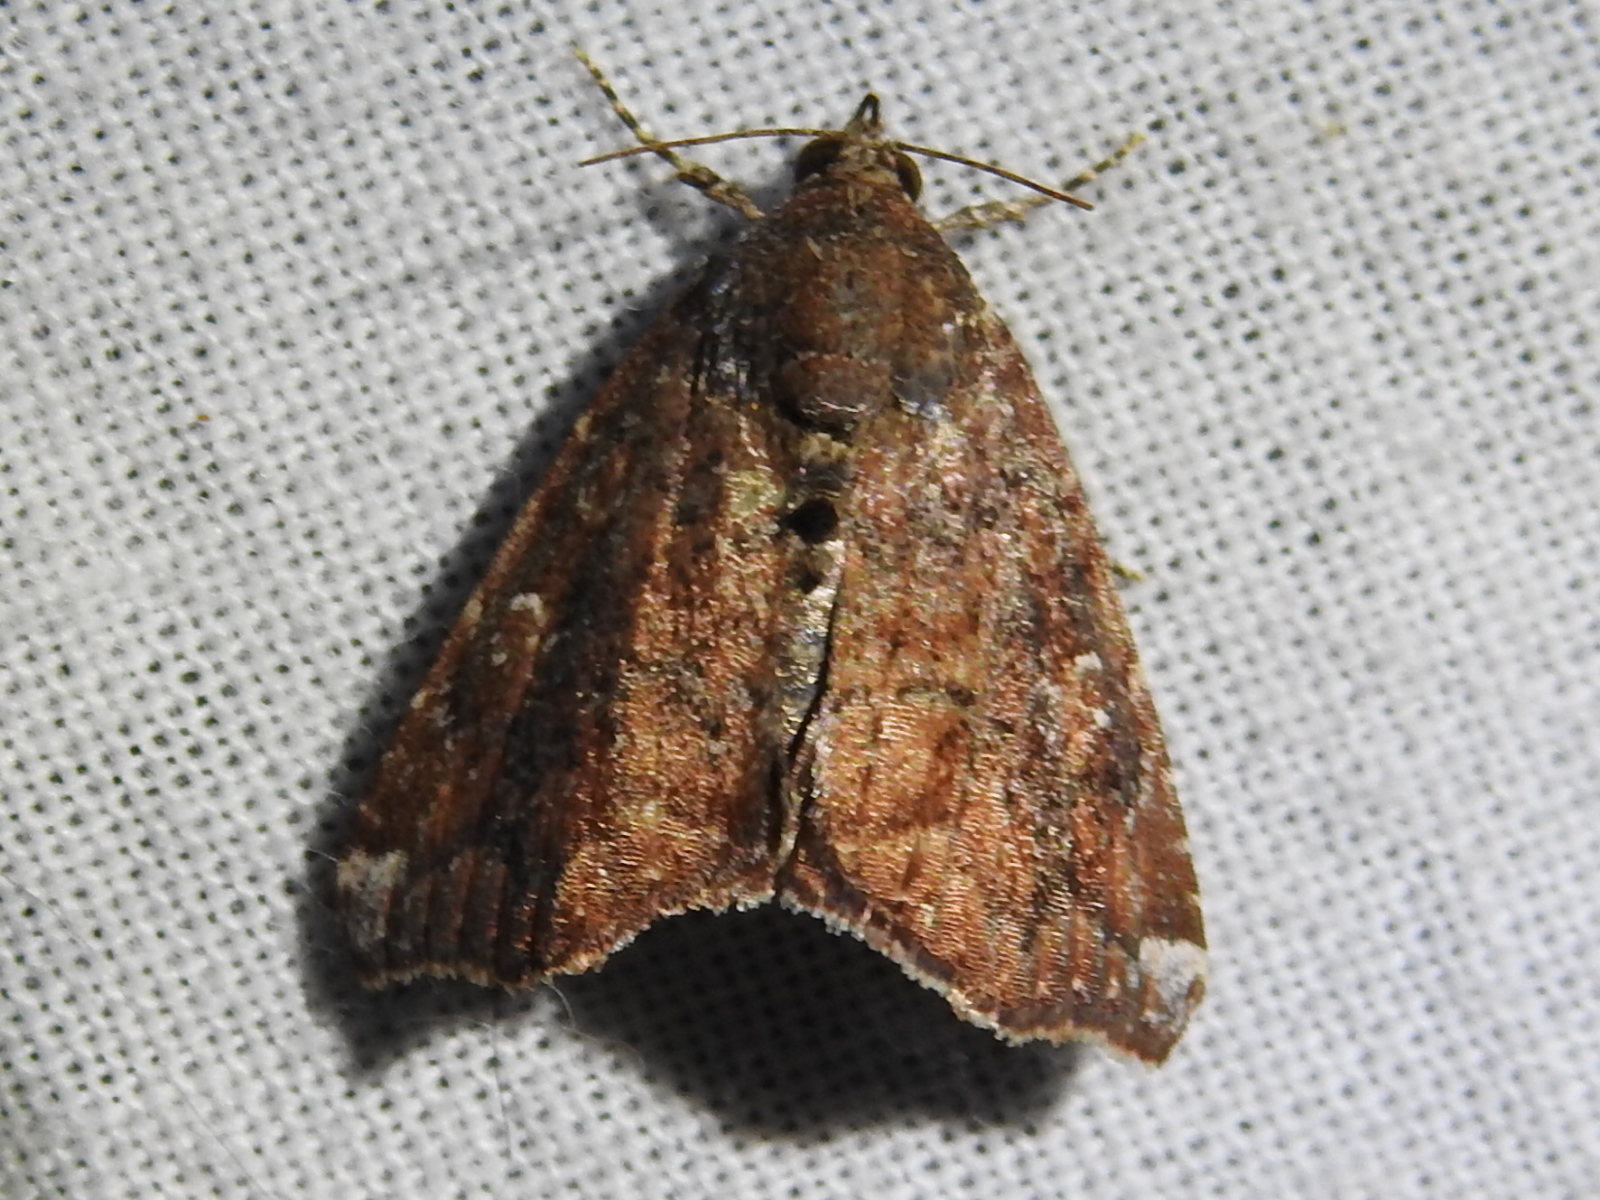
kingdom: Animalia
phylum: Arthropoda
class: Insecta
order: Lepidoptera
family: Noctuidae
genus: Amyna
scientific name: Amyna bullula
